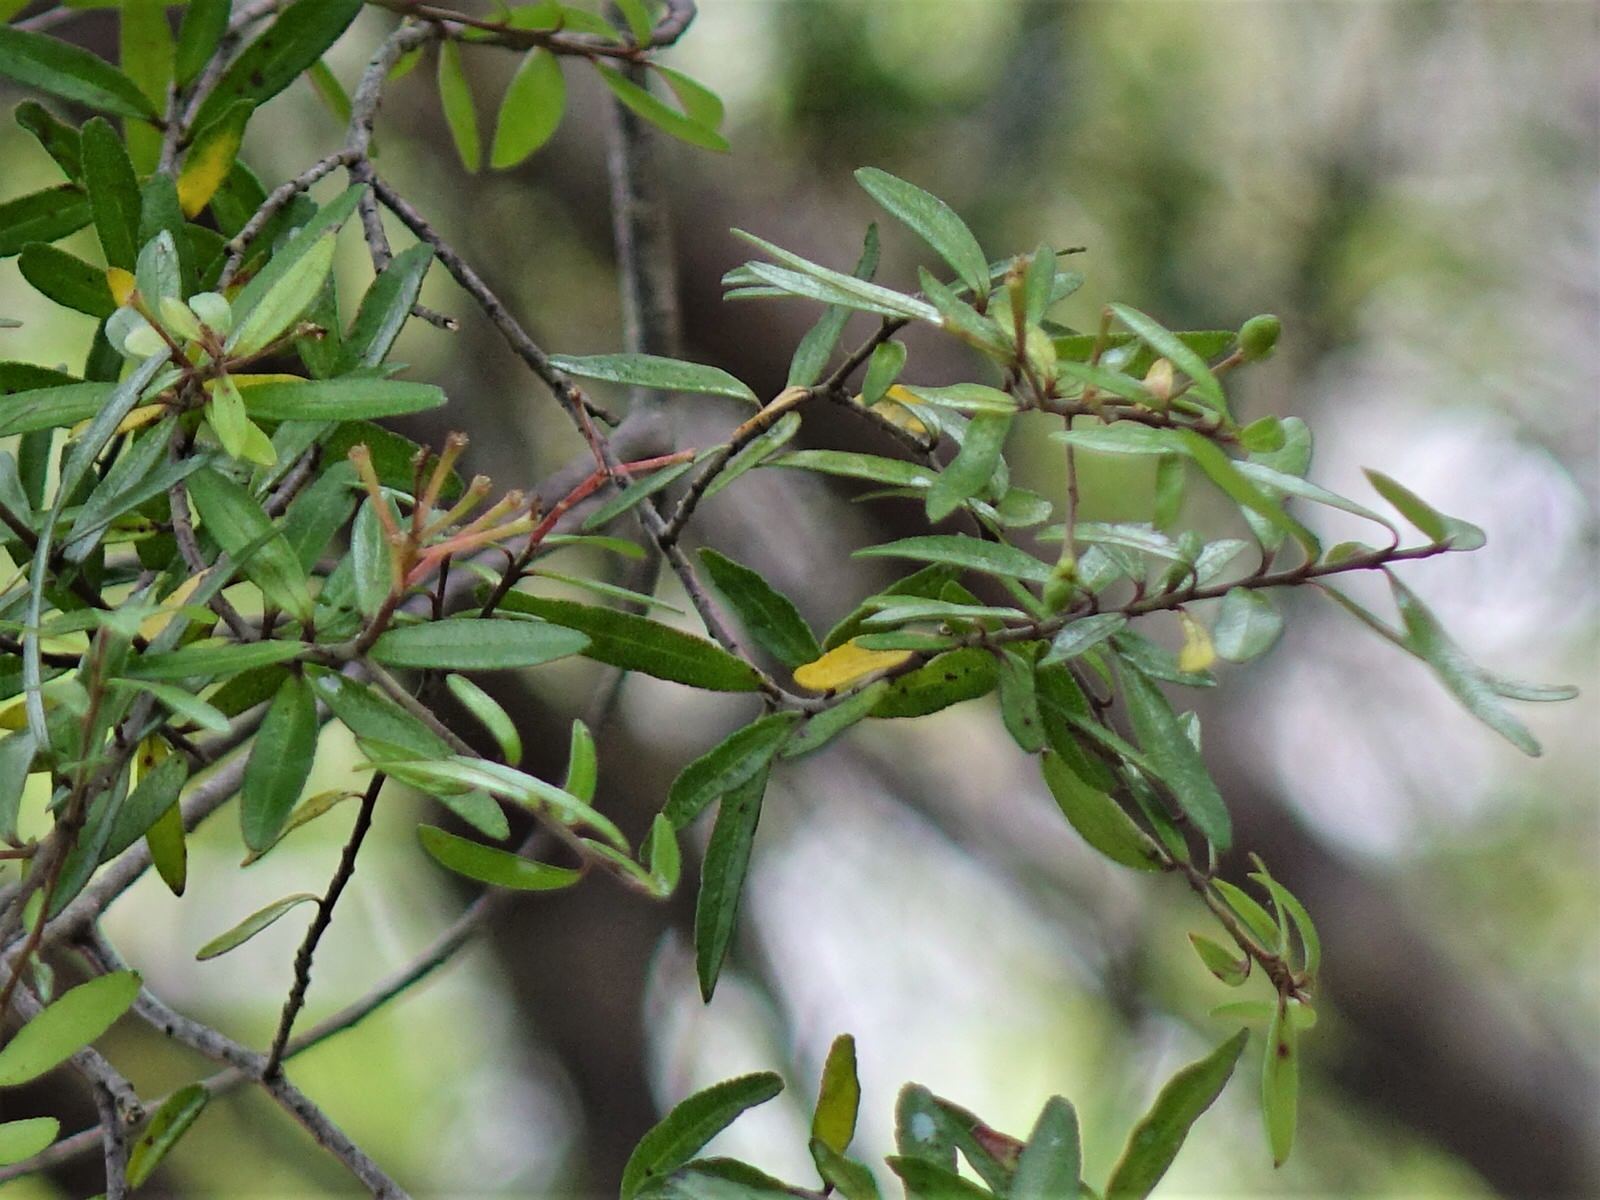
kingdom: Plantae
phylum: Tracheophyta
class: Magnoliopsida
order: Sapindales
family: Rutaceae
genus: Leionema
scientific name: Leionema nudum
